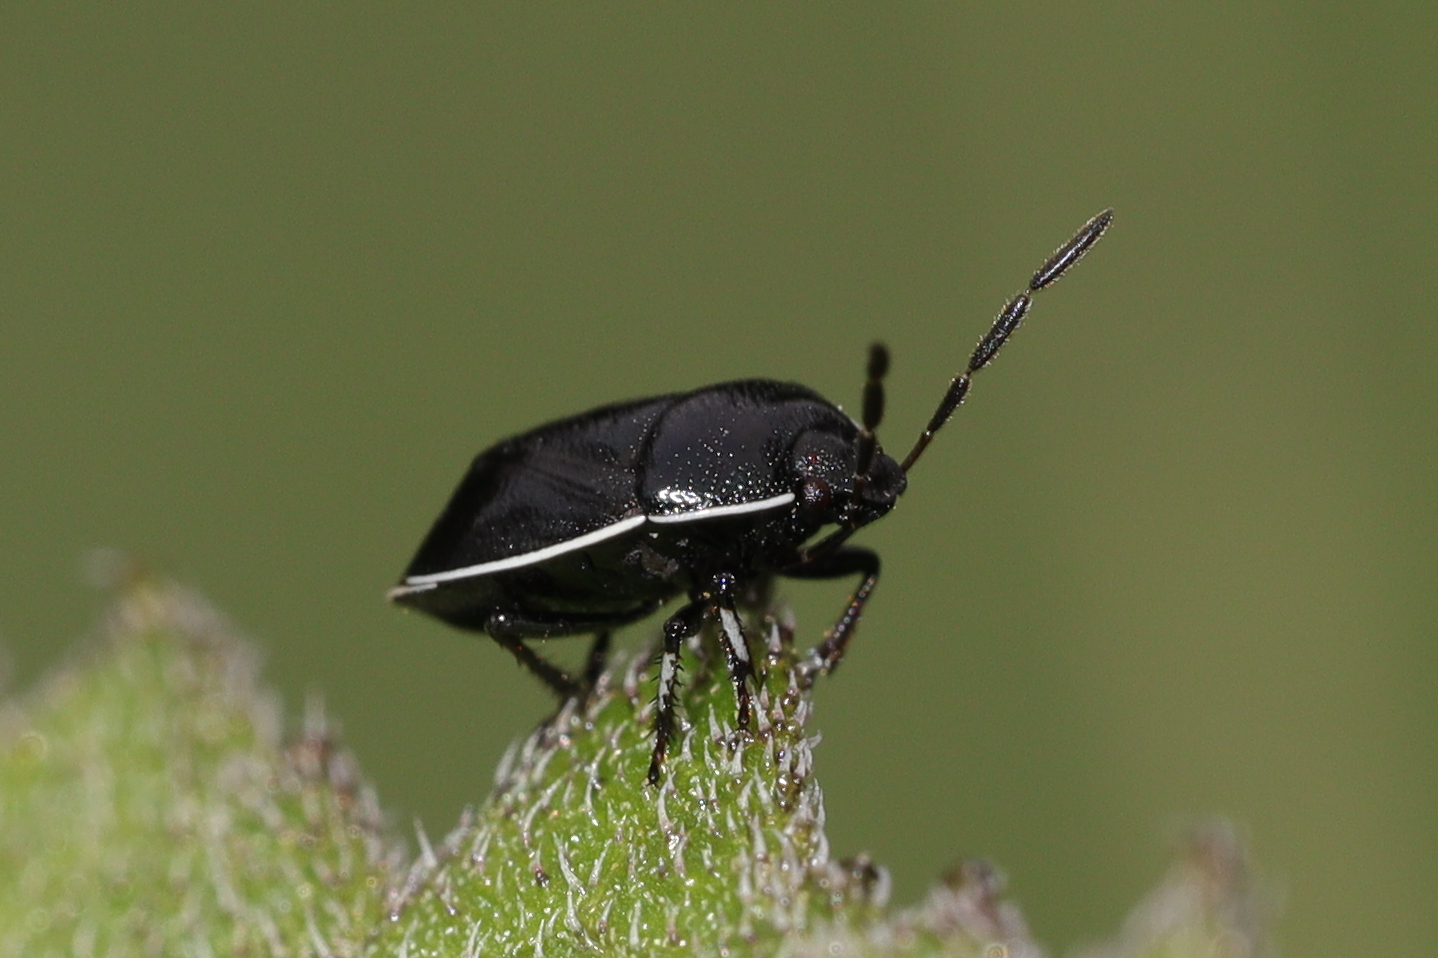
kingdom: Animalia
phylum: Arthropoda
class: Insecta
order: Hemiptera
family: Cydnidae
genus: Sehirus
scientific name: Sehirus cinctus
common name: White-margined burrower bug
